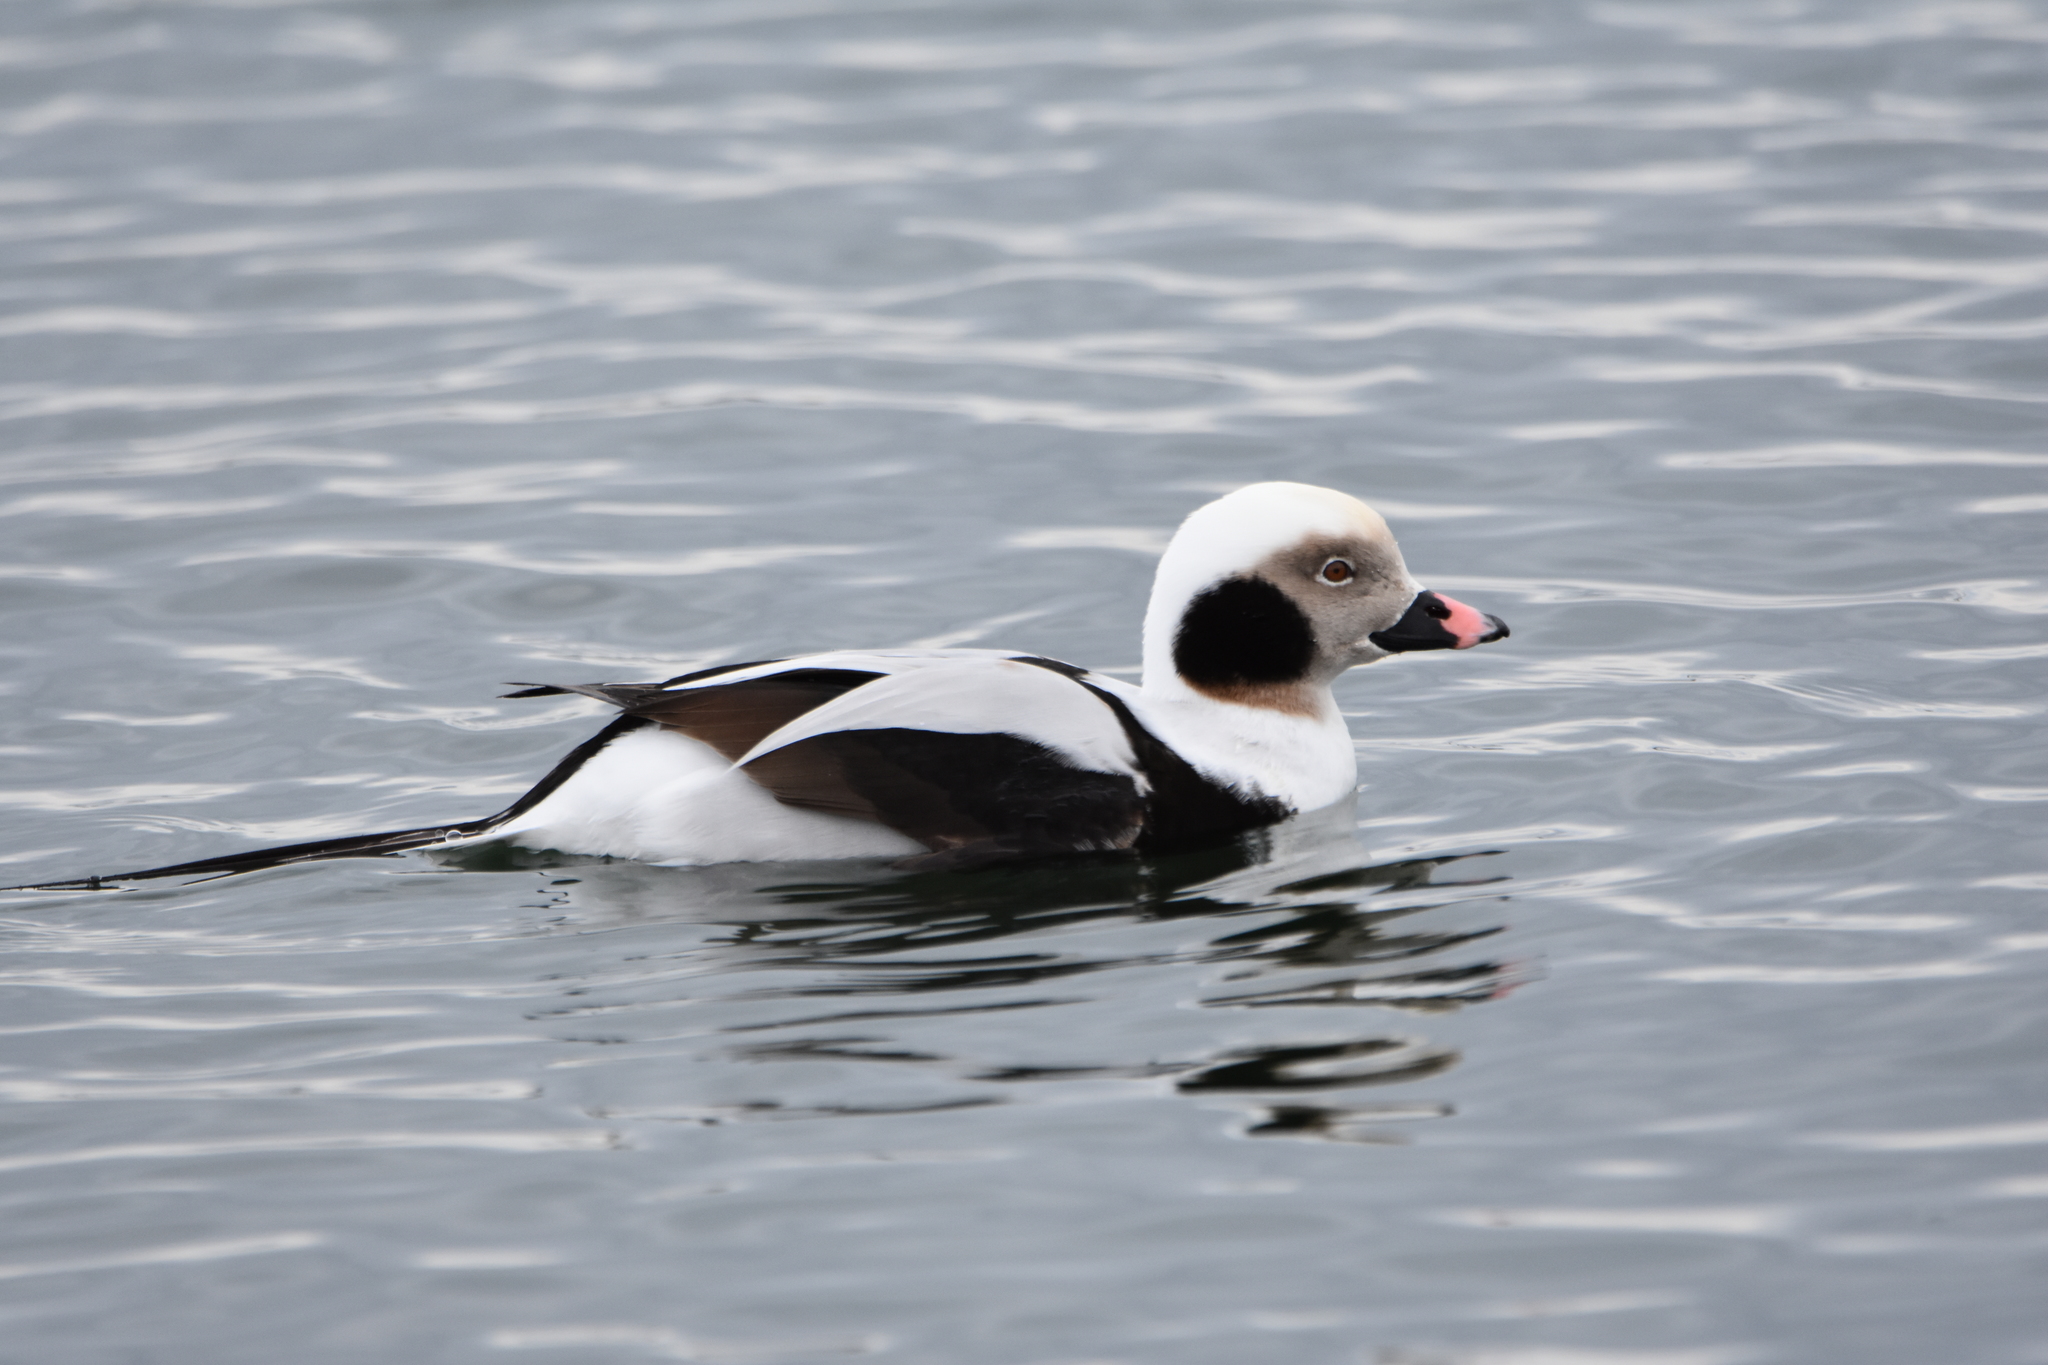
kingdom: Animalia
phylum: Chordata
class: Aves
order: Anseriformes
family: Anatidae
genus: Clangula
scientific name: Clangula hyemalis
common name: Long-tailed duck
